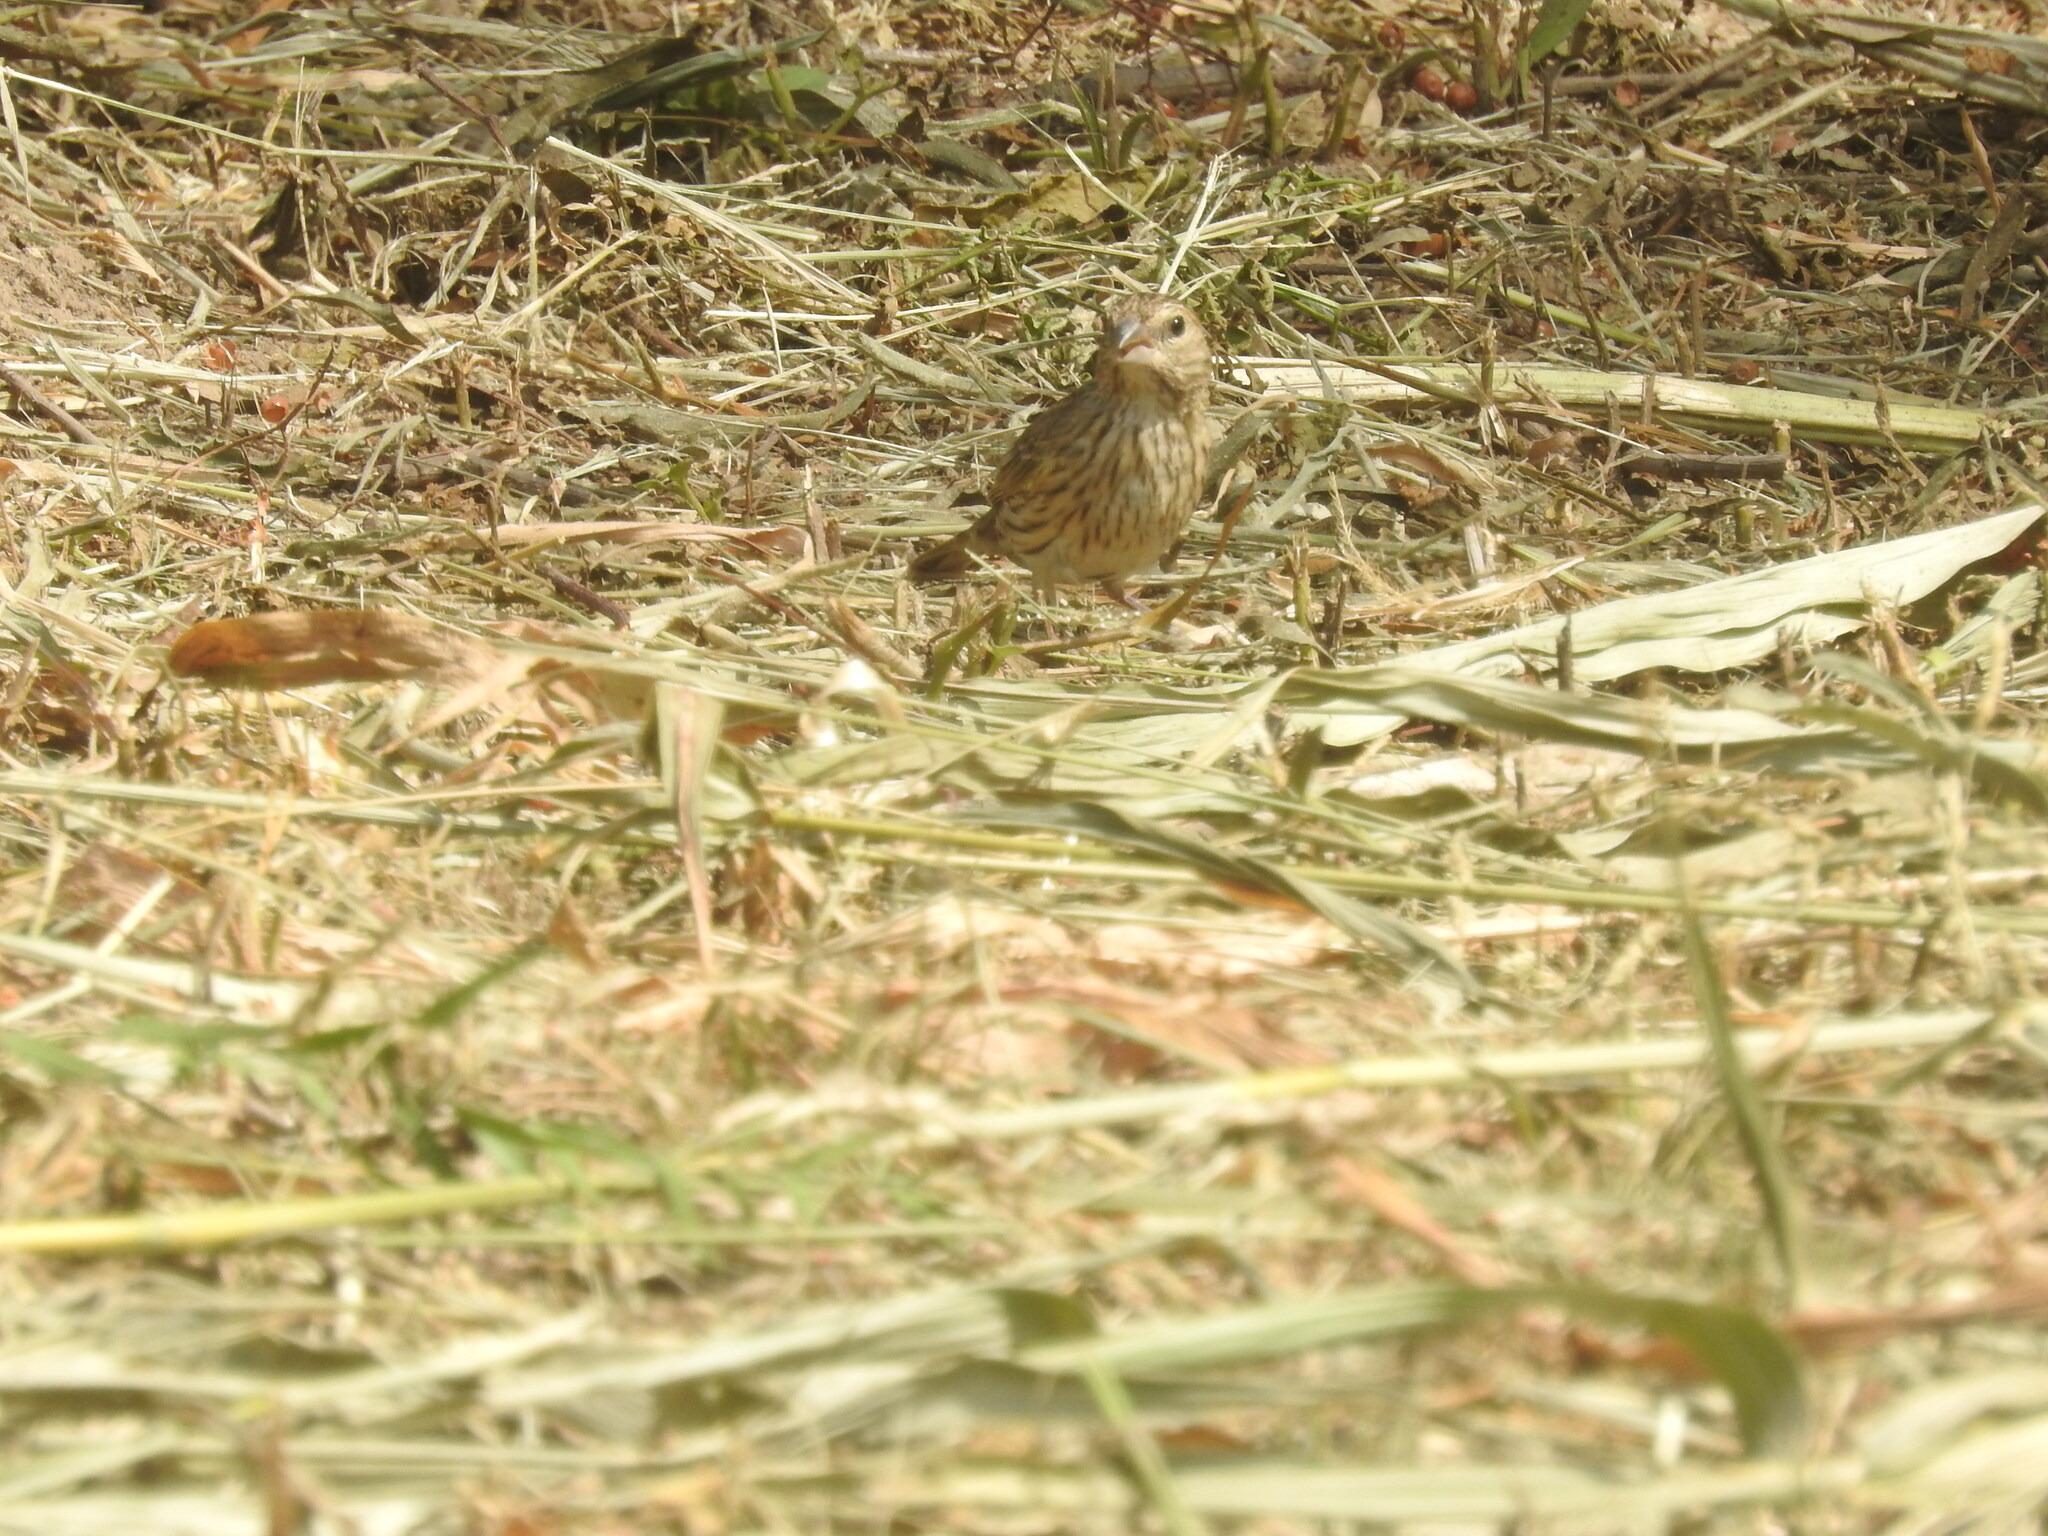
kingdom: Animalia
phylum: Chordata
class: Aves
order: Passeriformes
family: Thraupidae
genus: Sicalis
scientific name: Sicalis flaveola
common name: Saffron finch
